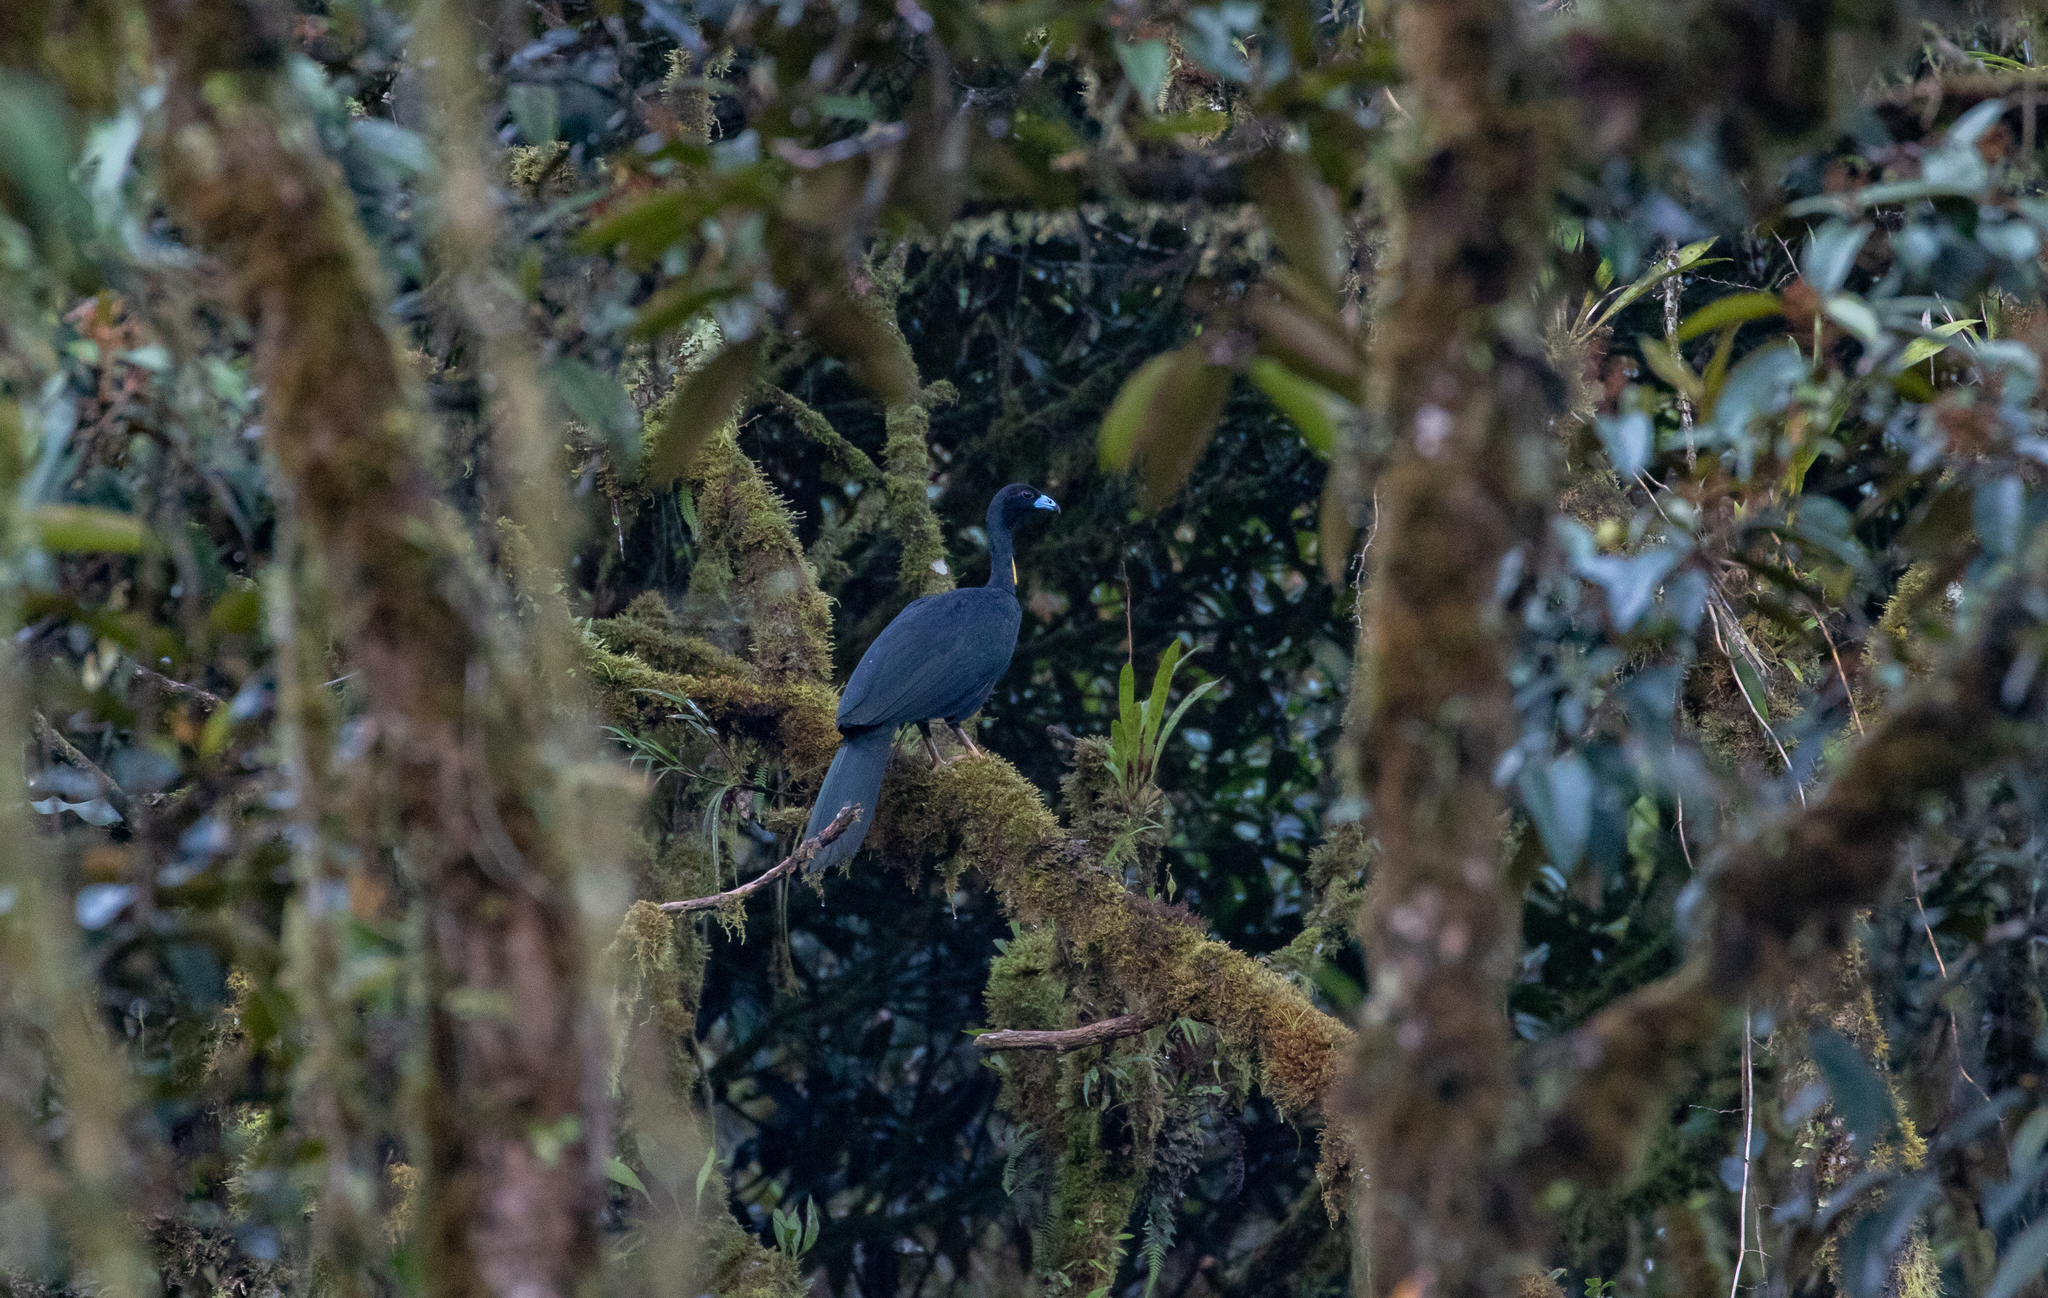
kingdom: Animalia
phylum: Chordata
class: Aves
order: Galliformes
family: Cracidae
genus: Aburria
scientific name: Aburria aburri
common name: Wattled guan
